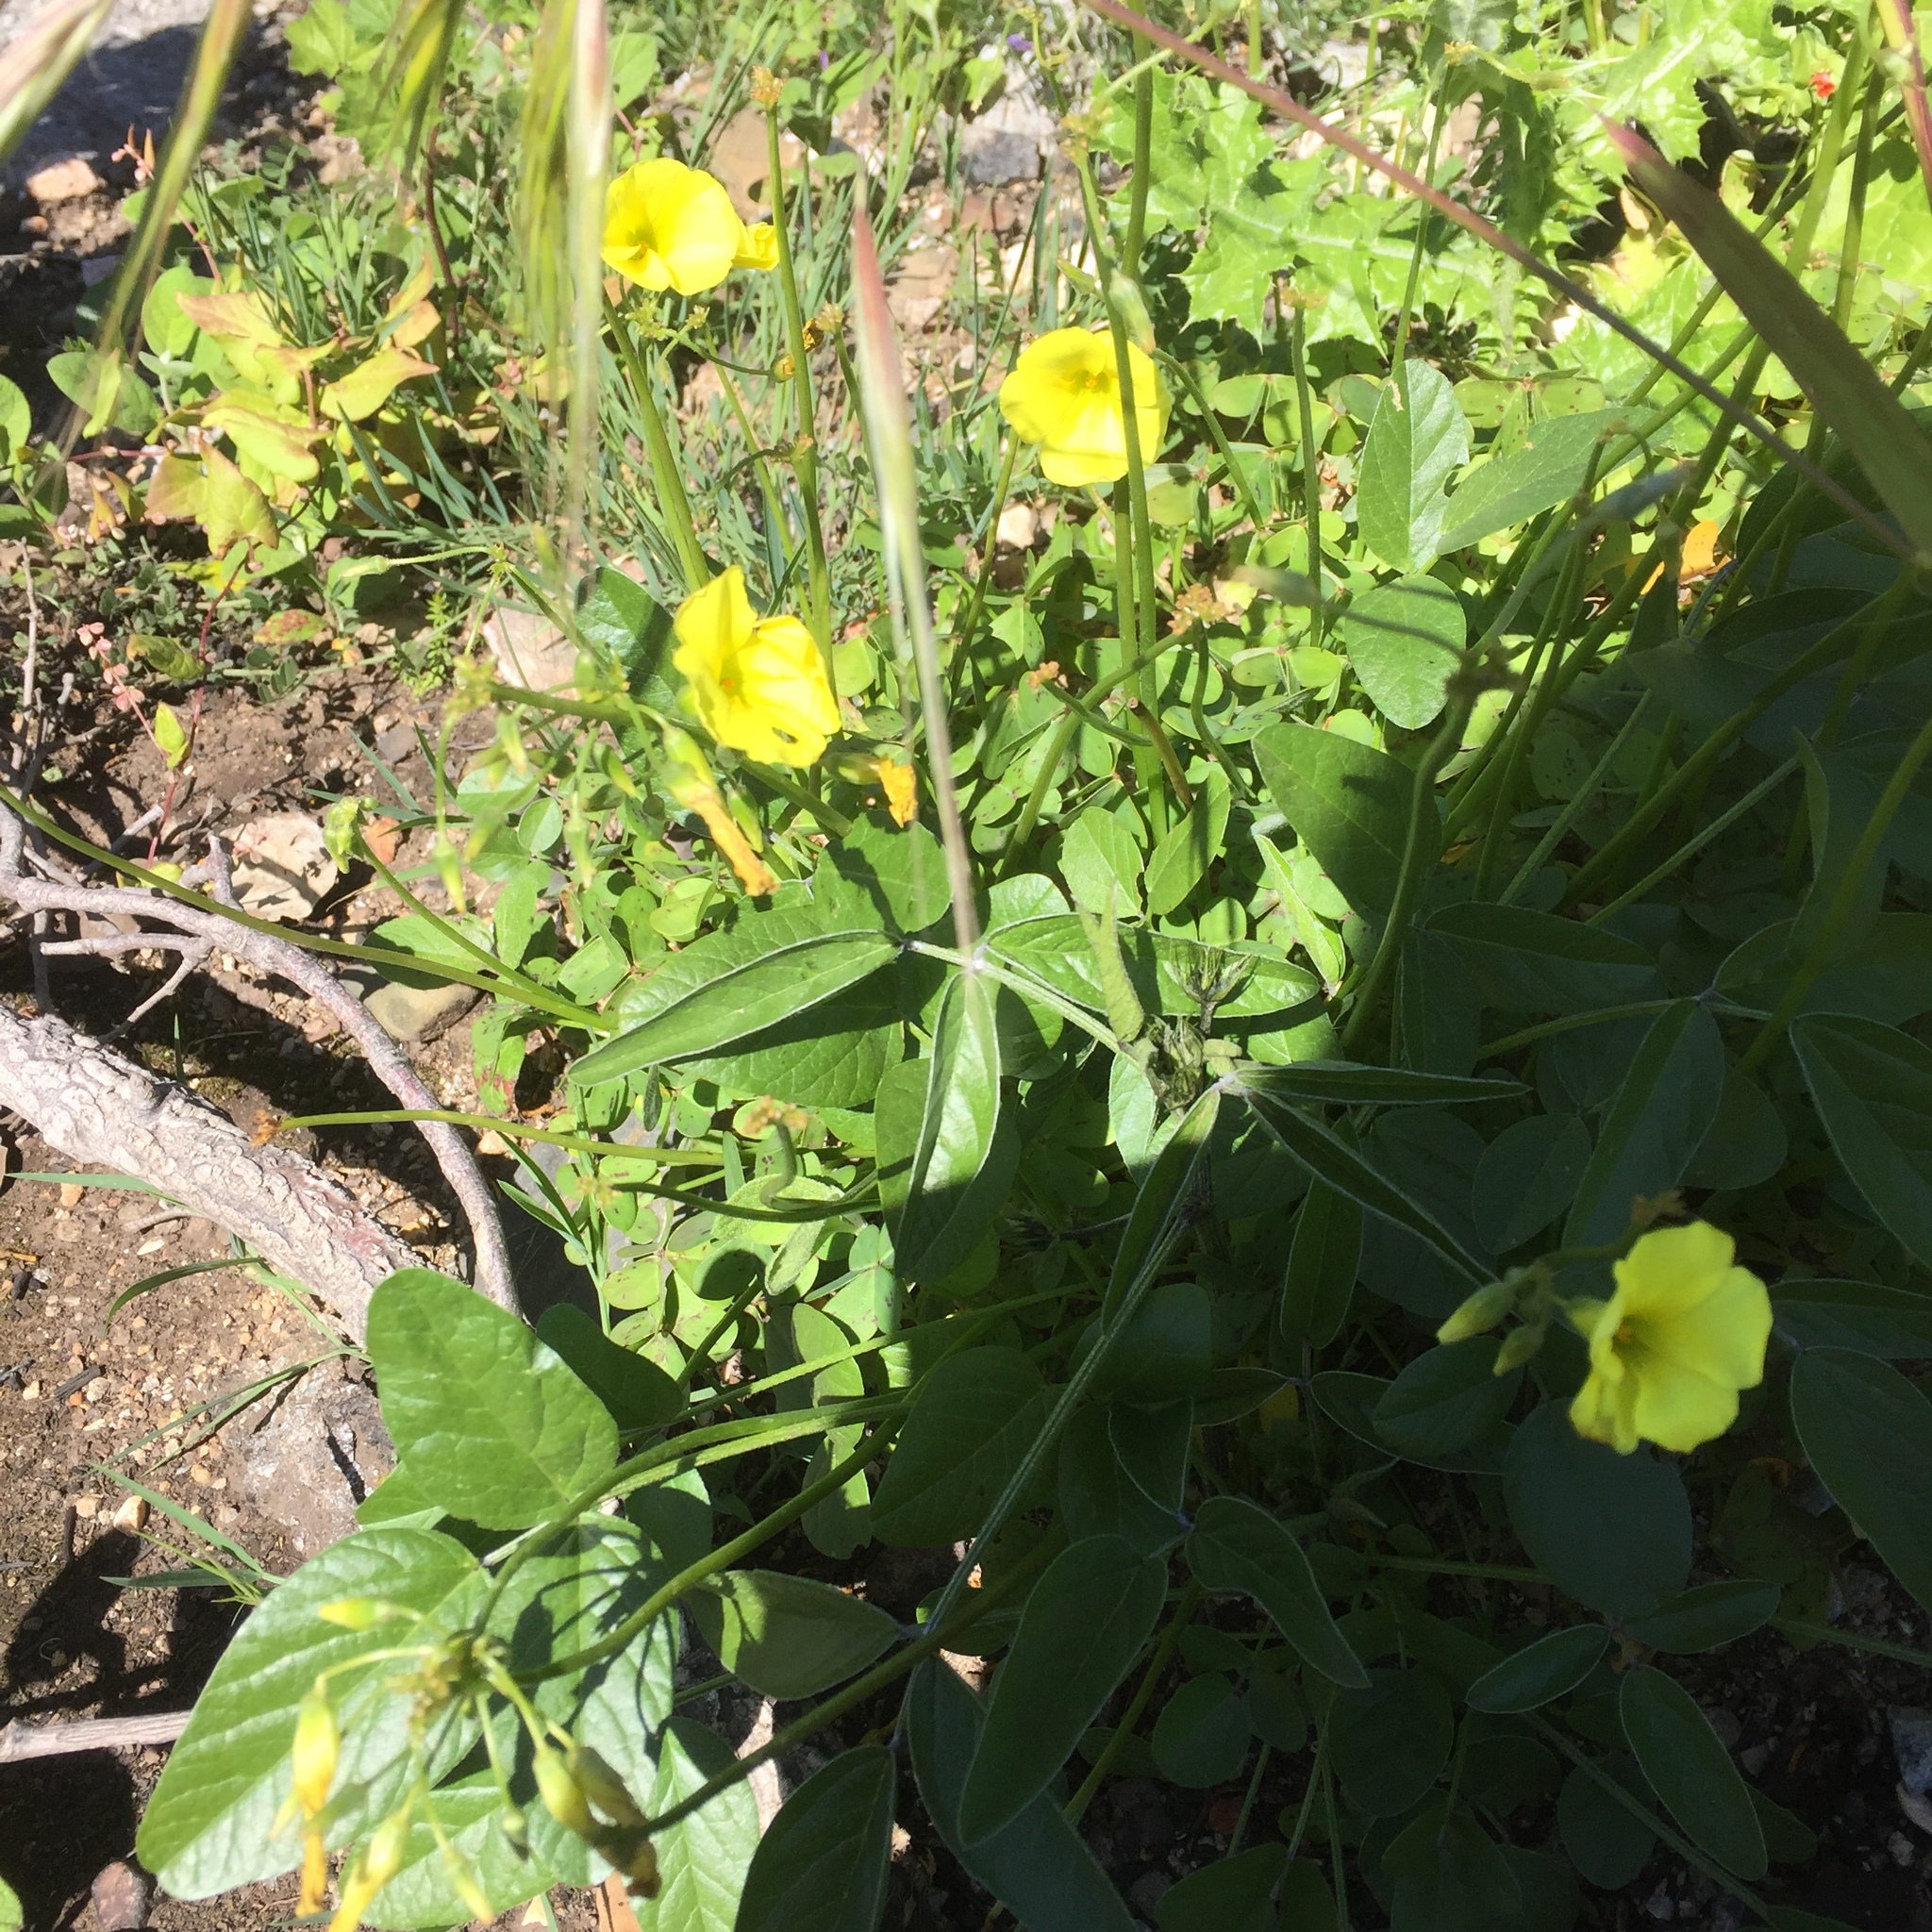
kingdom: Plantae
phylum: Tracheophyta
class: Magnoliopsida
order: Oxalidales
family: Oxalidaceae
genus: Oxalis
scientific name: Oxalis pes-caprae
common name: Bermuda-buttercup
